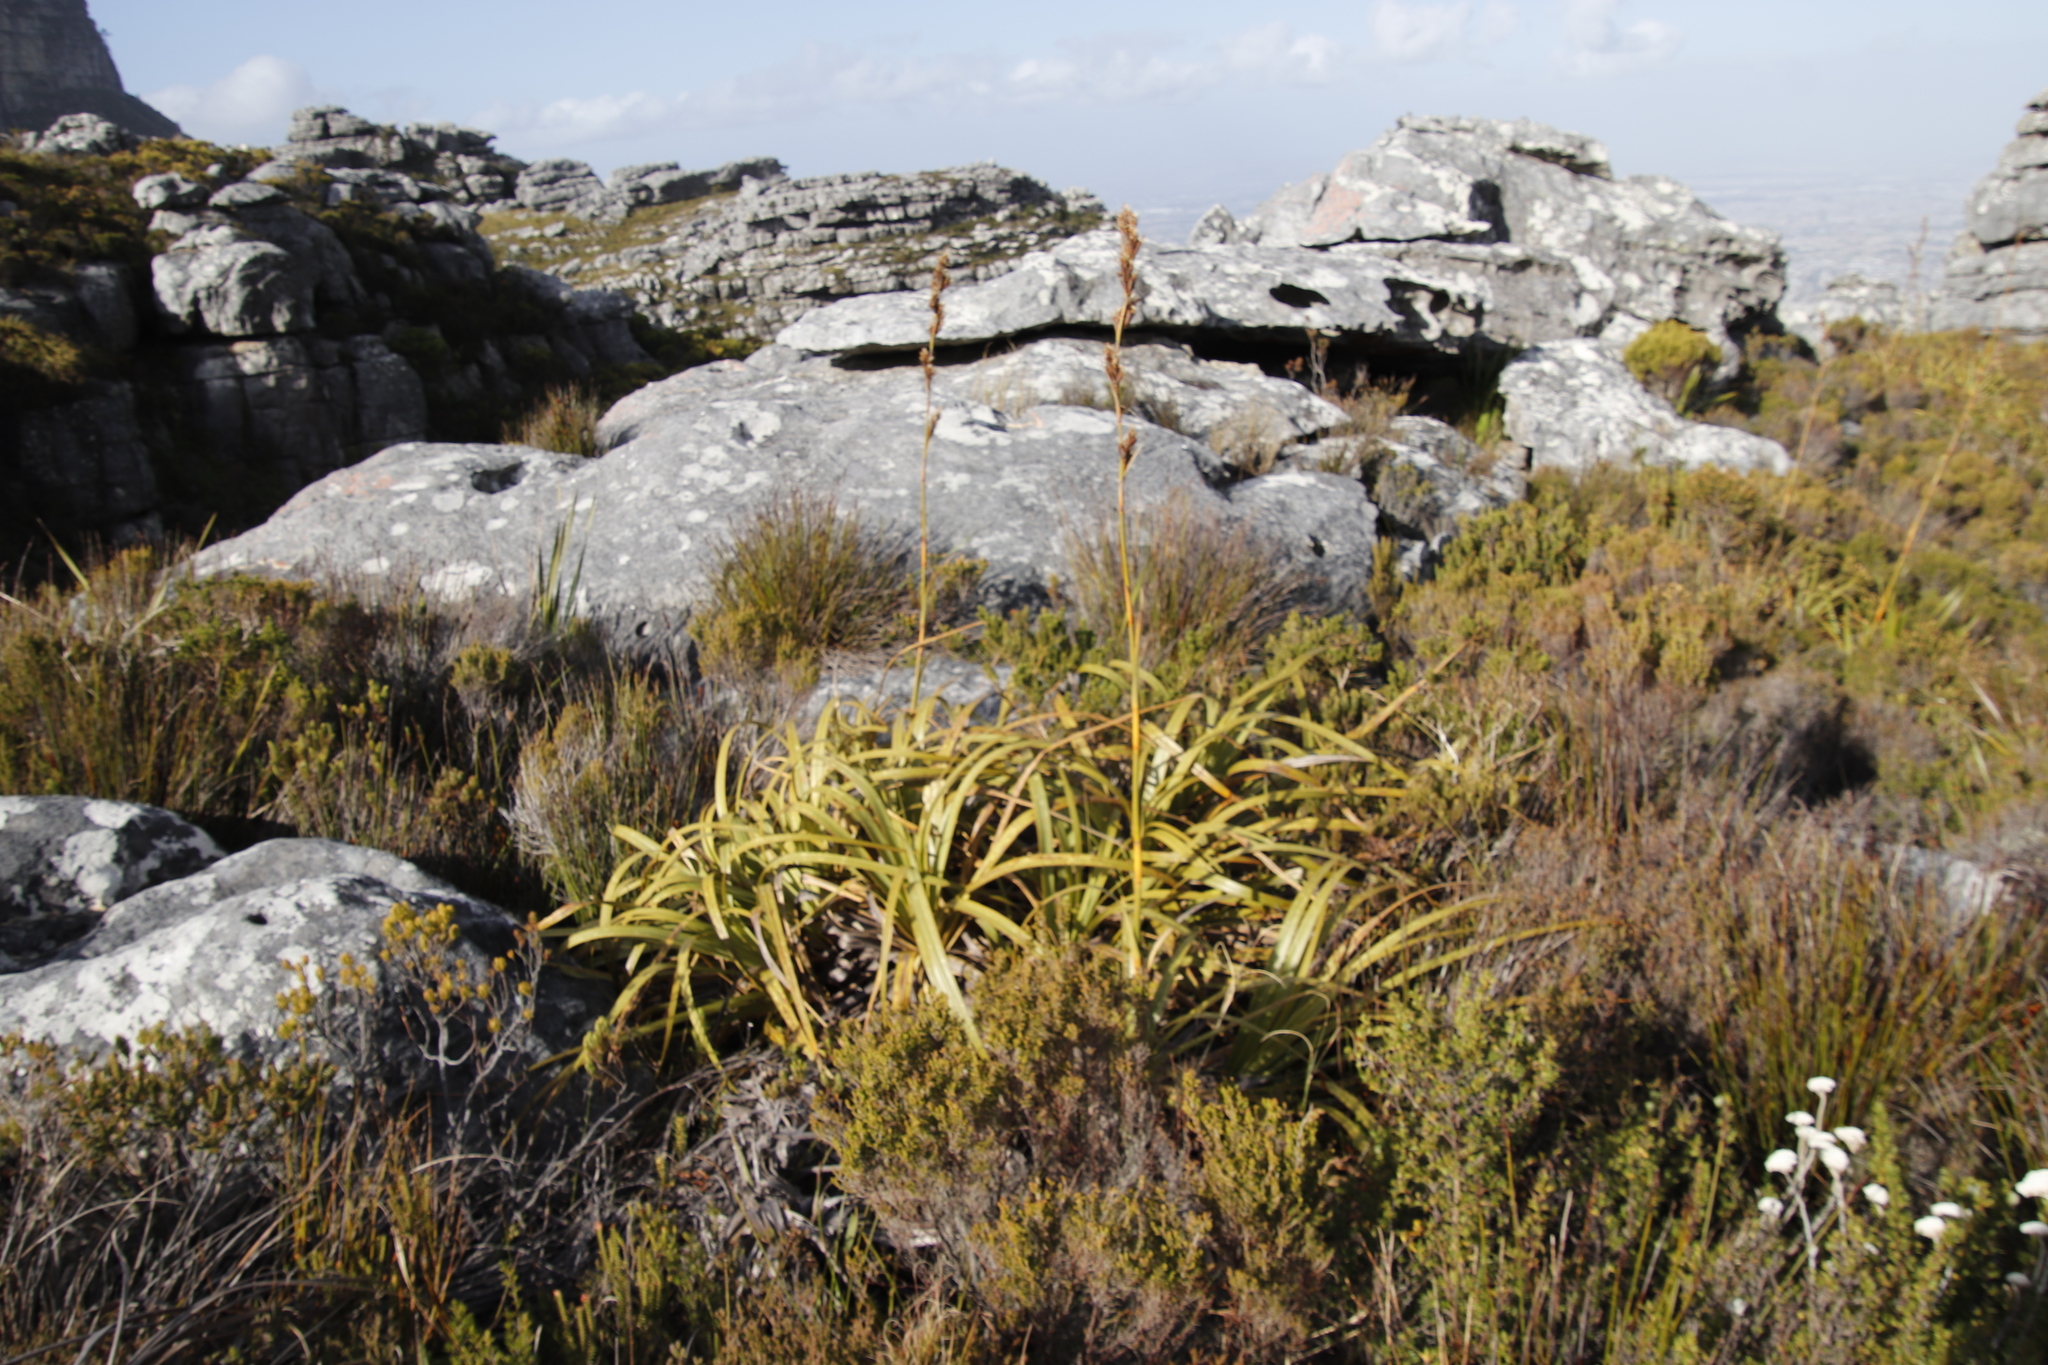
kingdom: Plantae
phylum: Tracheophyta
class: Liliopsida
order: Poales
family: Cyperaceae
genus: Tetraria
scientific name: Tetraria thermalis
